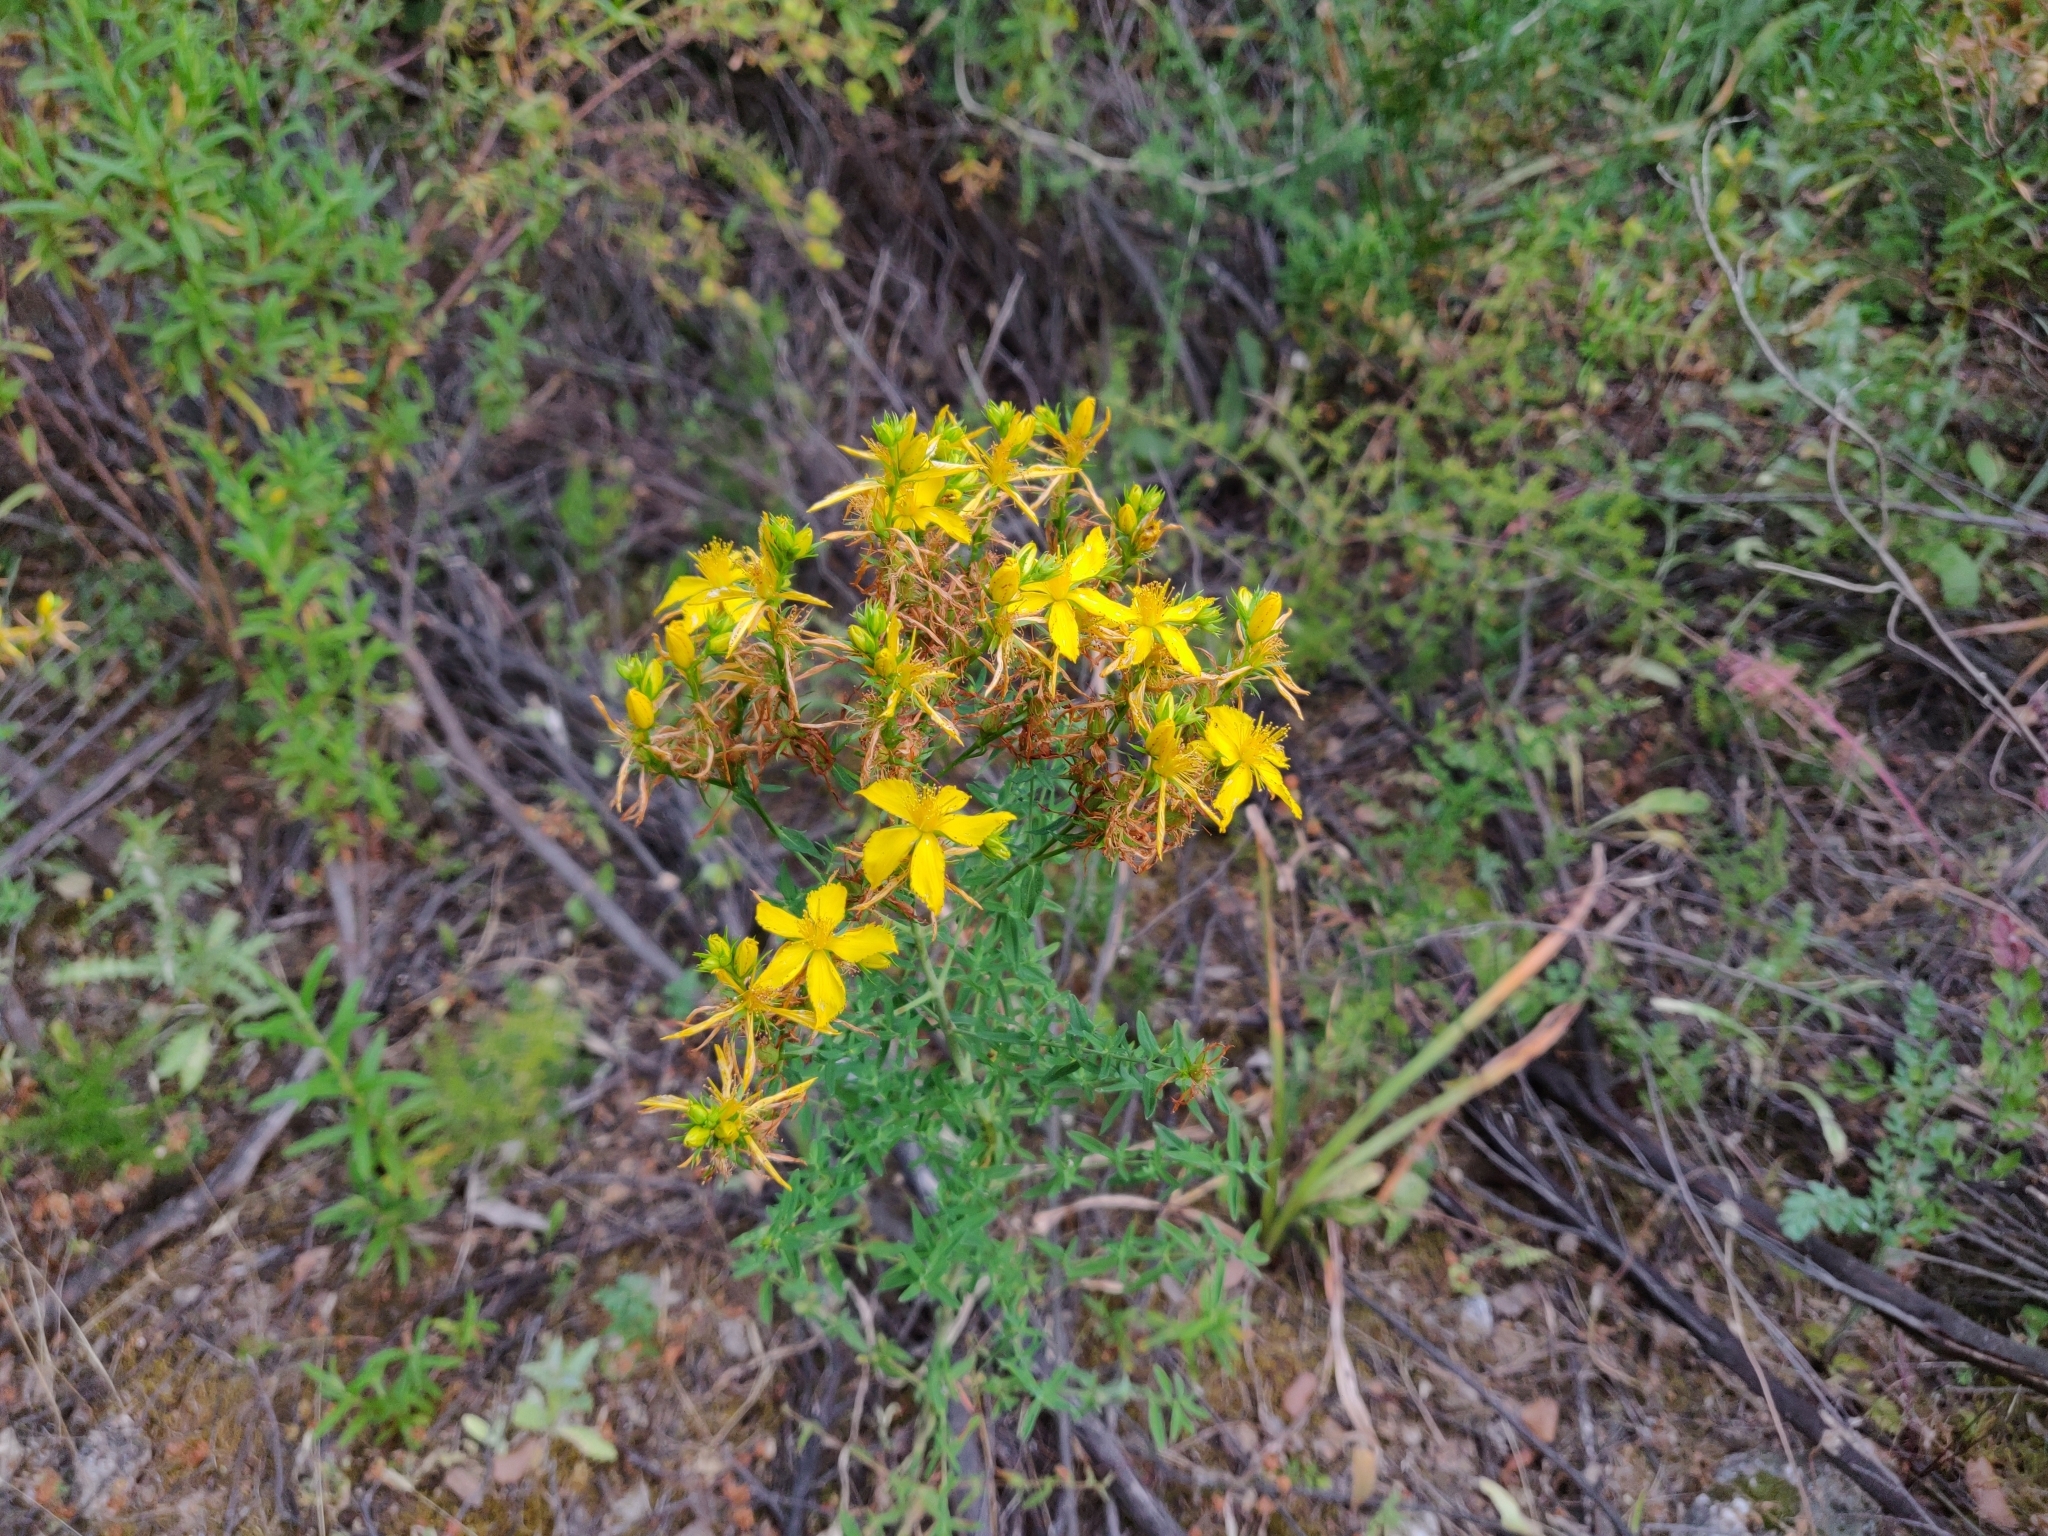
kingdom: Plantae
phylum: Tracheophyta
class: Magnoliopsida
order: Malpighiales
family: Hypericaceae
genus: Hypericum
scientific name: Hypericum perforatum
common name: Common st. johnswort
